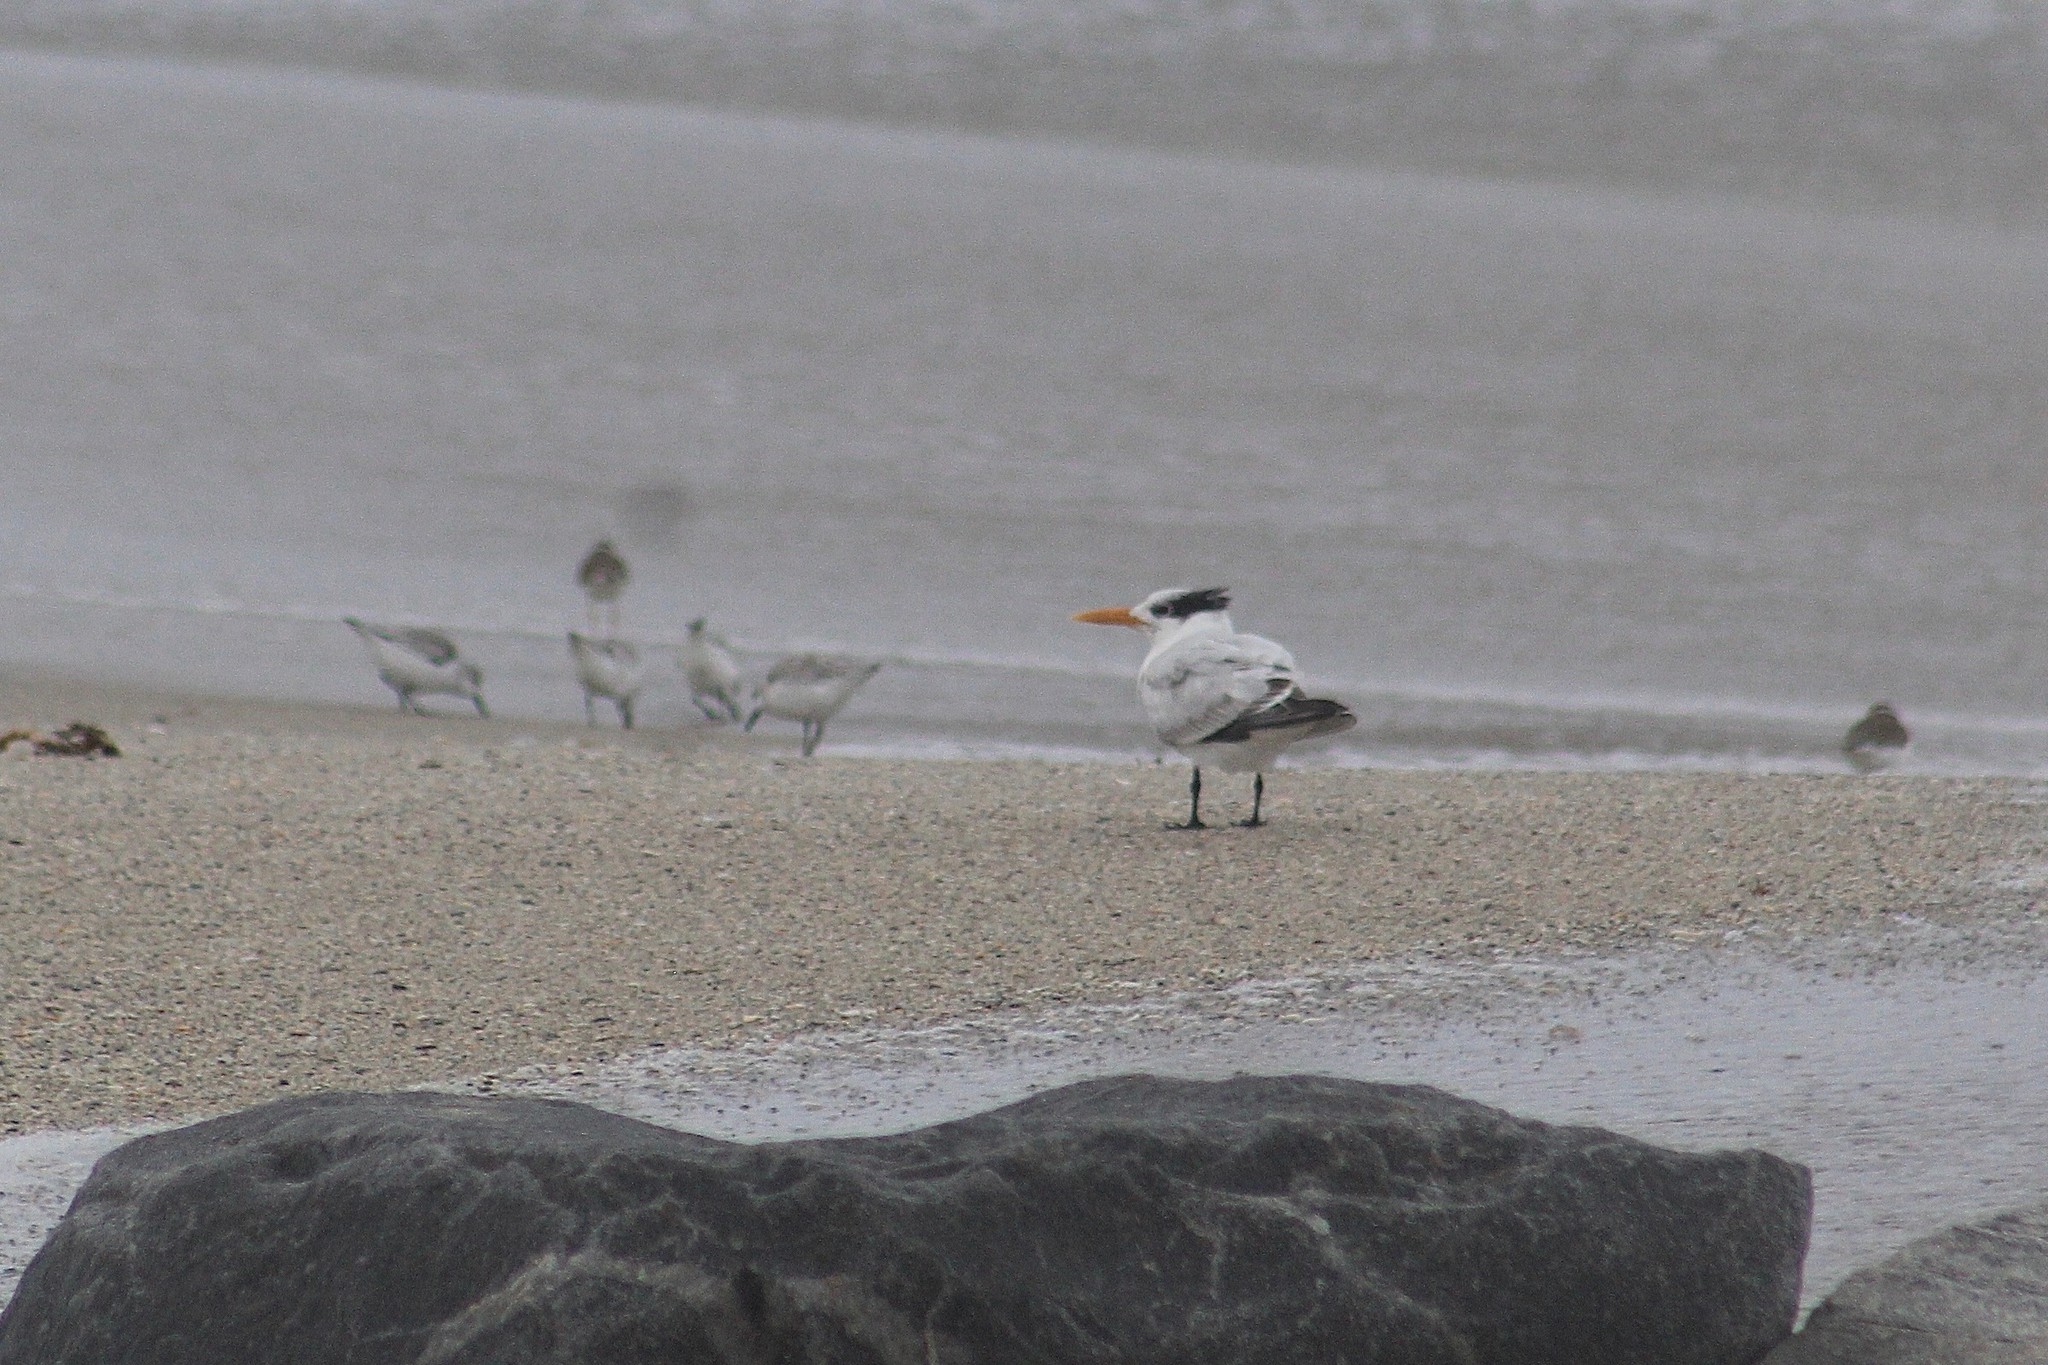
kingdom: Animalia
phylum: Chordata
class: Aves
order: Charadriiformes
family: Laridae
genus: Thalasseus
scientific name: Thalasseus maximus
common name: Royal tern
